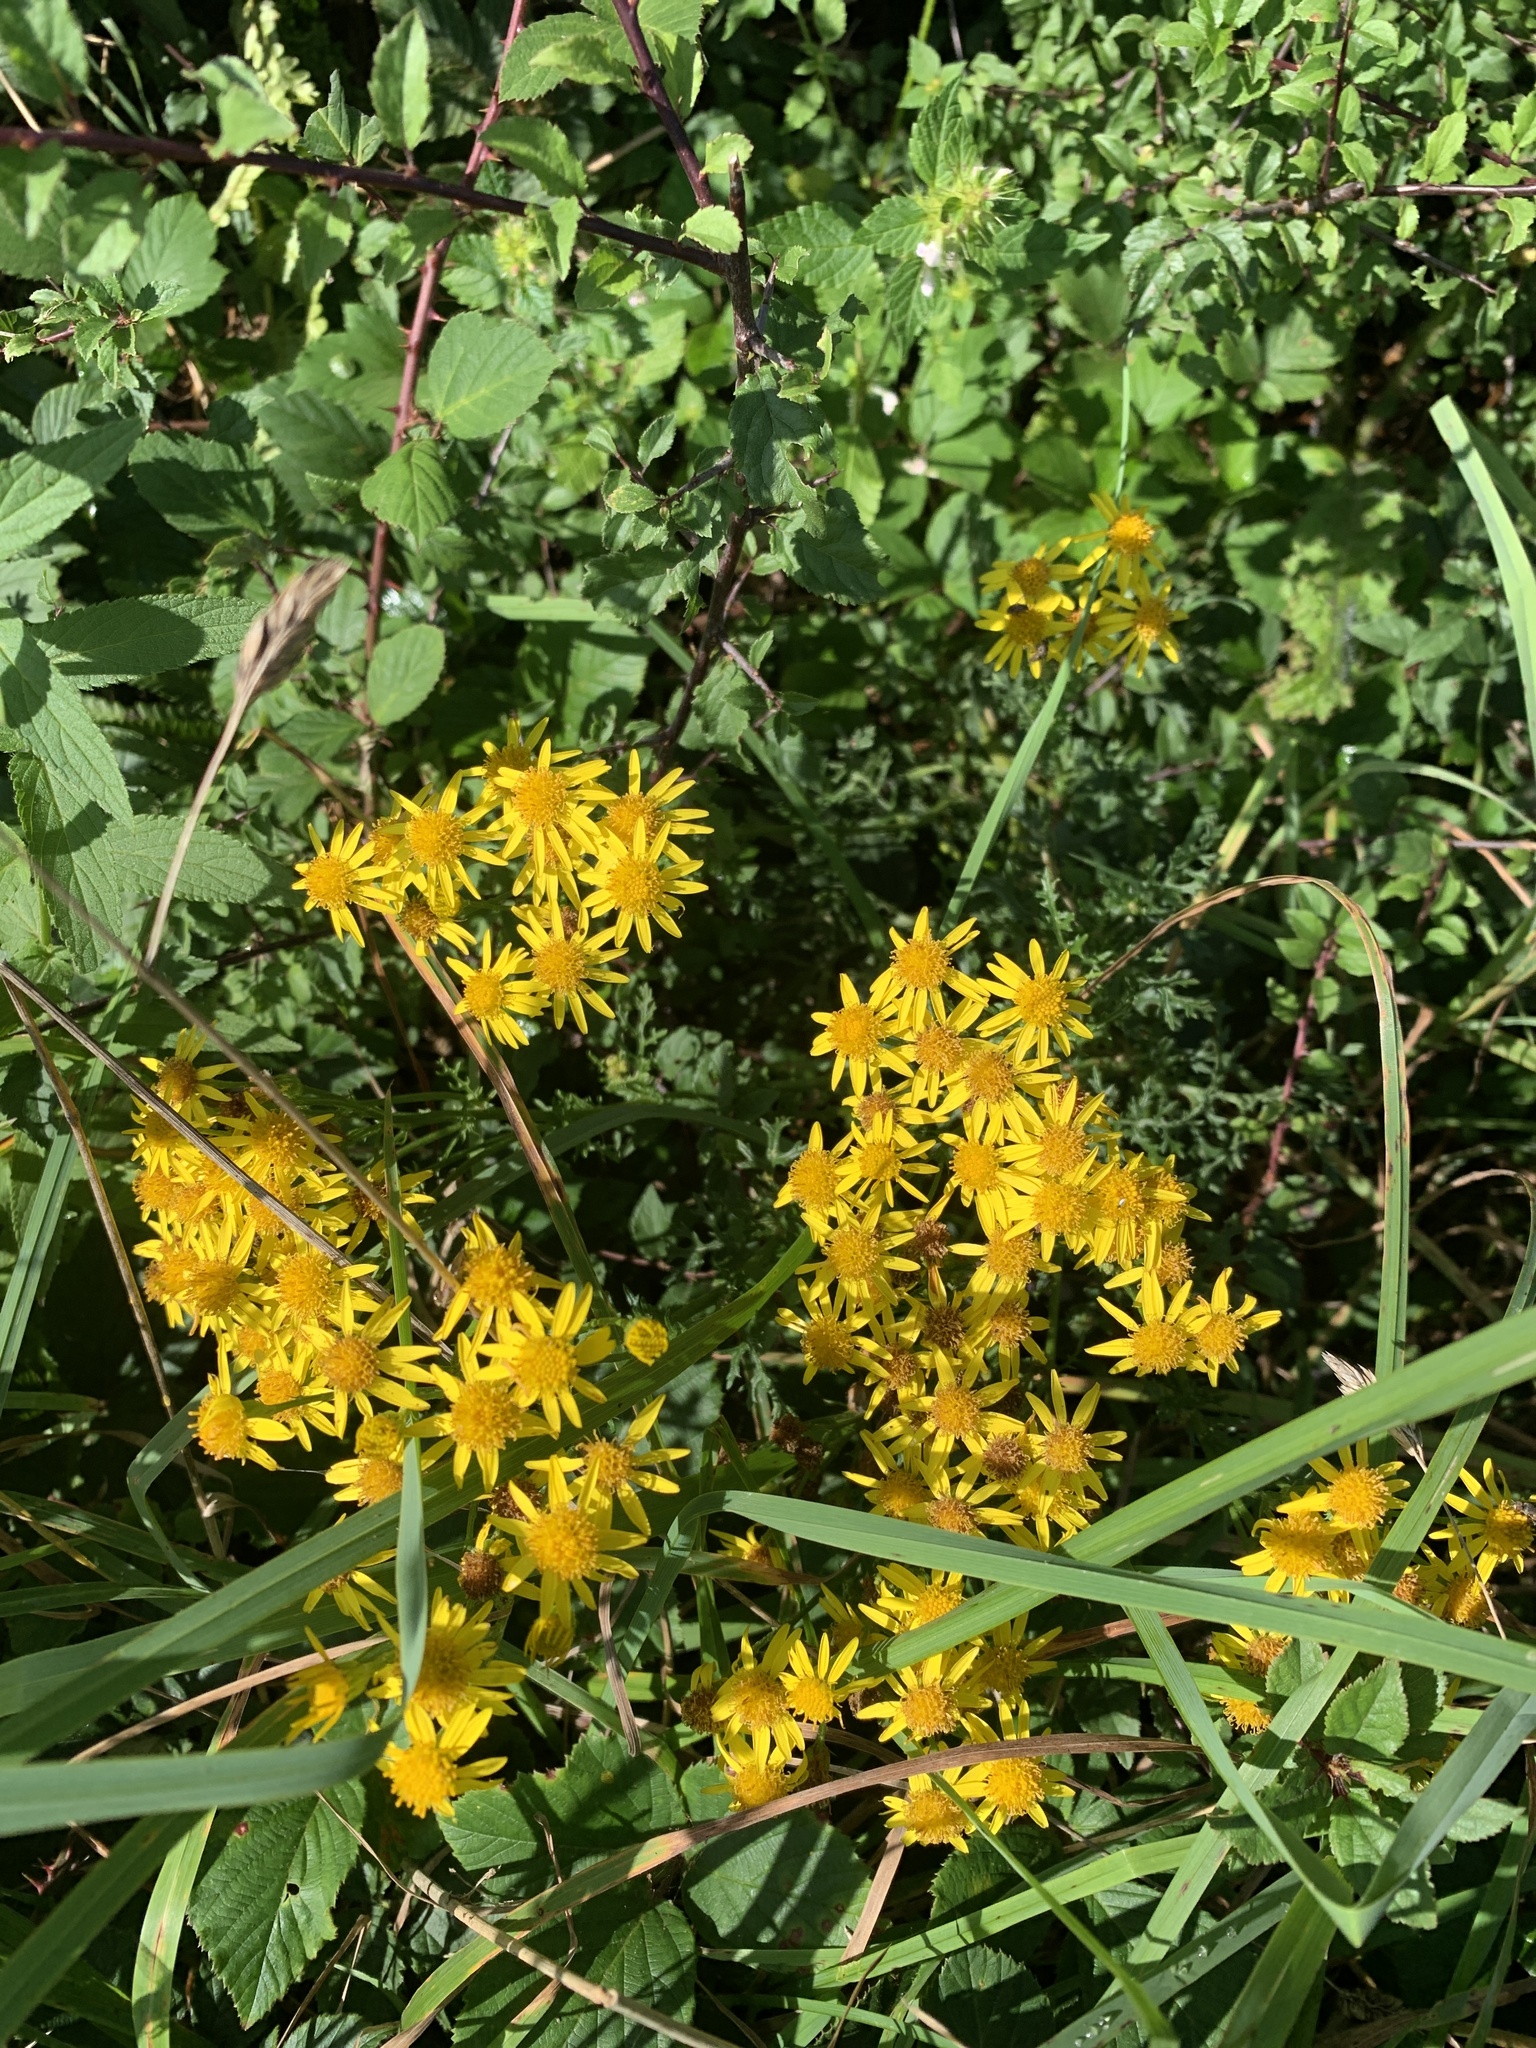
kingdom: Plantae
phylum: Tracheophyta
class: Magnoliopsida
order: Asterales
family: Asteraceae
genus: Jacobaea
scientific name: Jacobaea vulgaris
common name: Stinking willie
